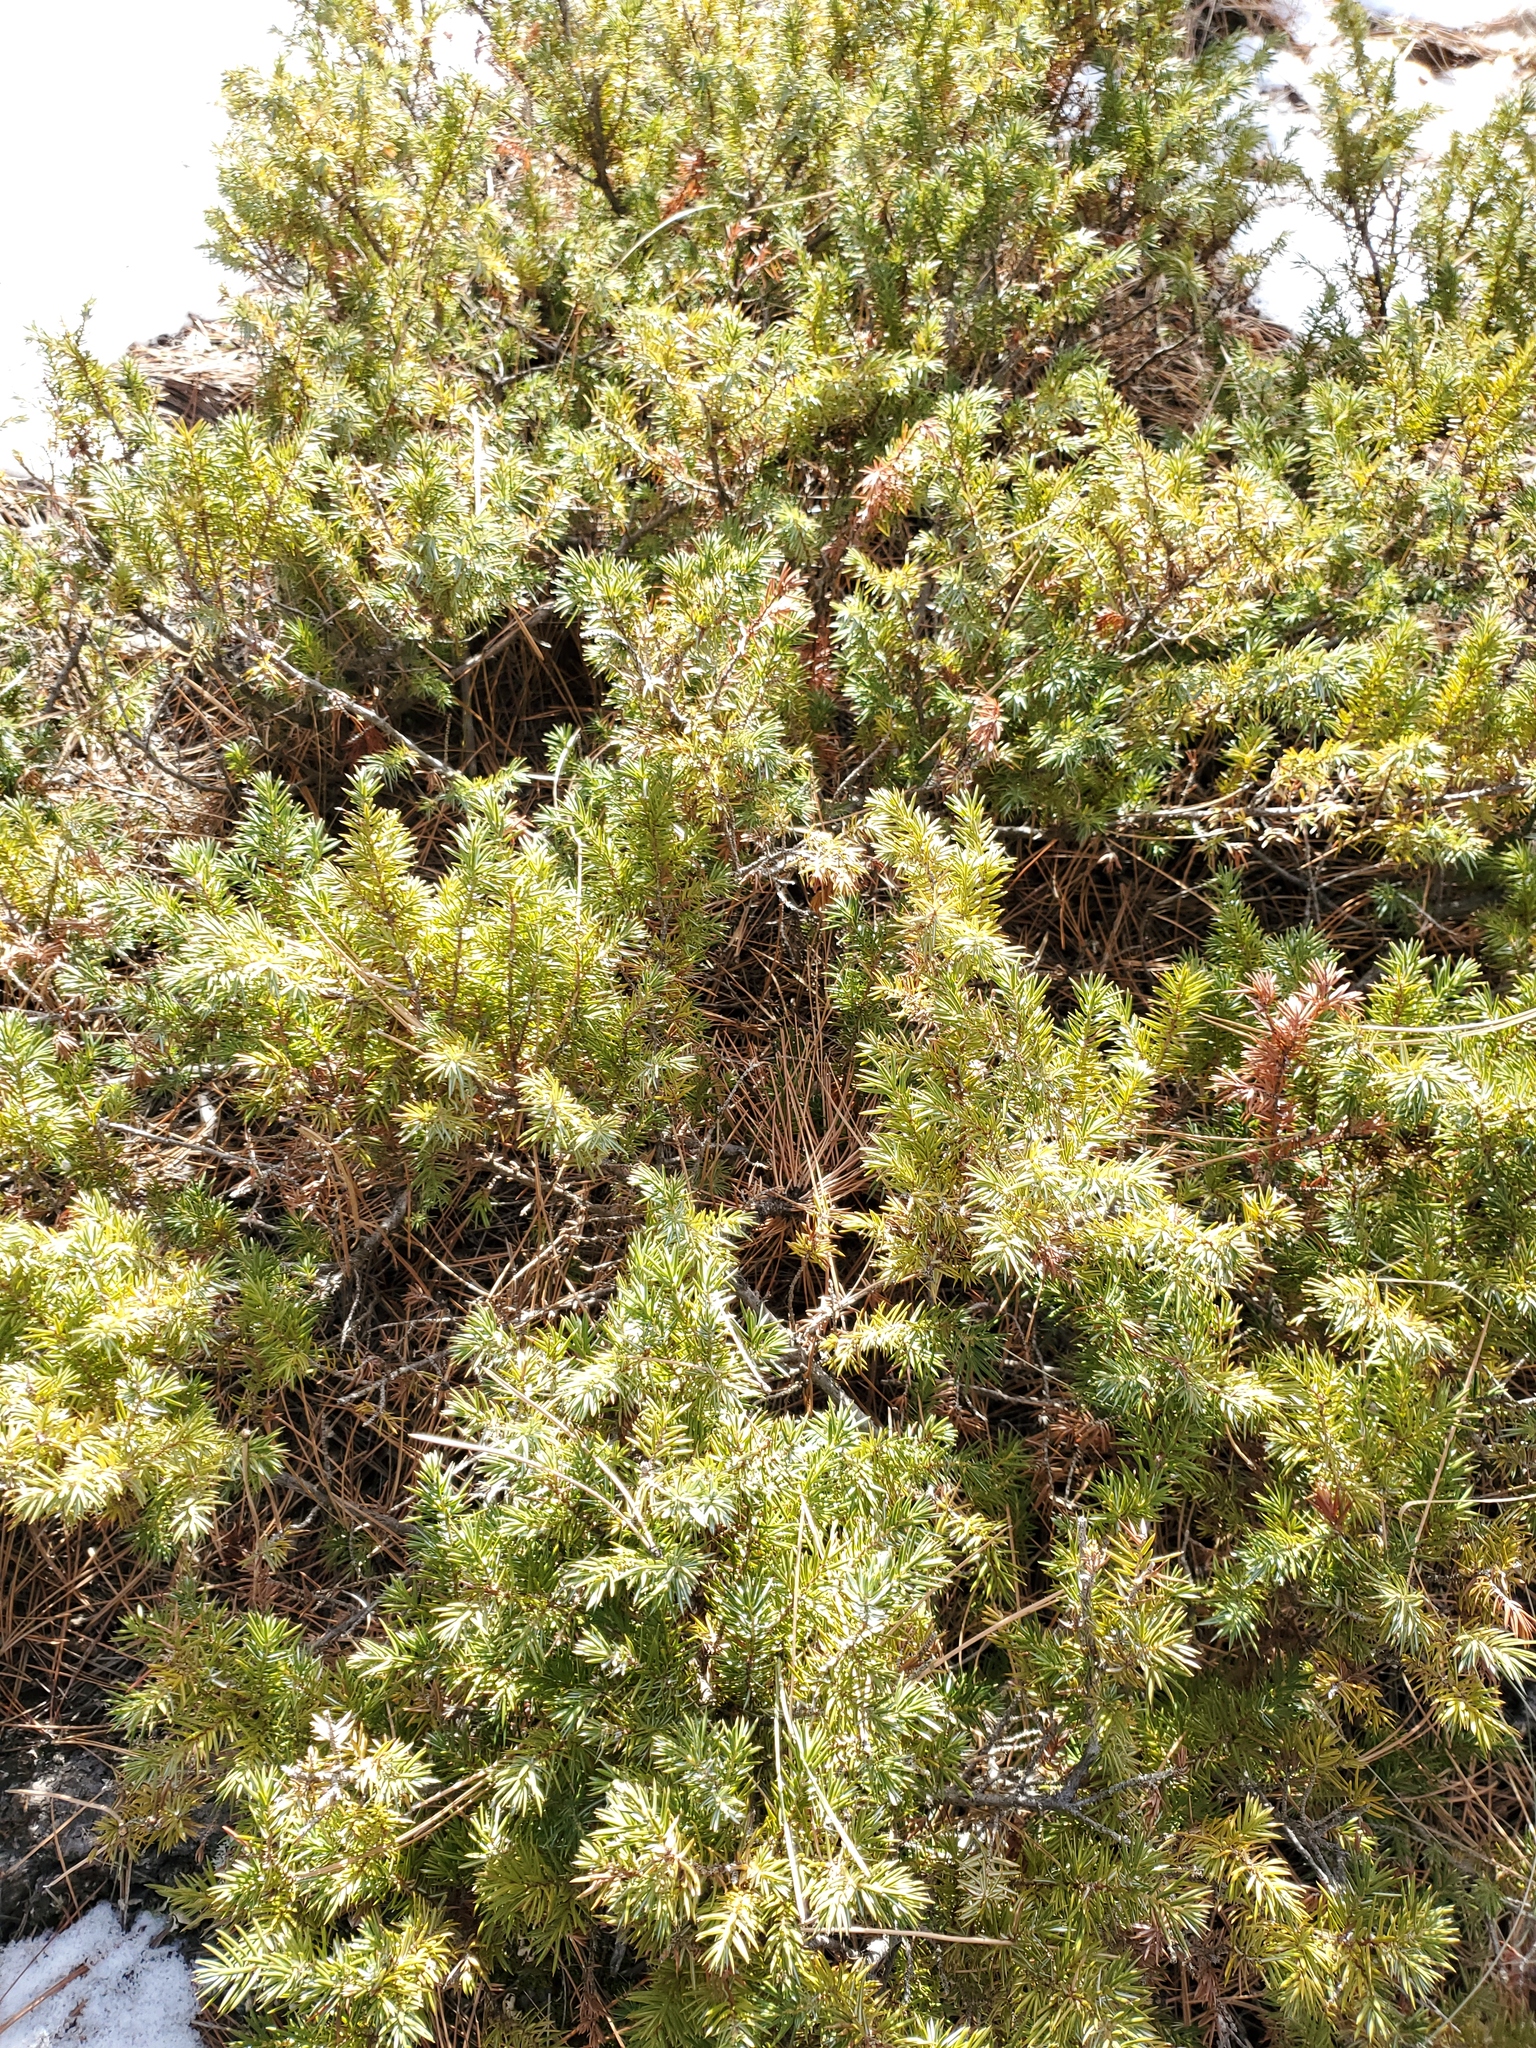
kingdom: Plantae
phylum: Tracheophyta
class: Pinopsida
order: Pinales
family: Cupressaceae
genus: Juniperus
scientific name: Juniperus communis
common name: Common juniper
